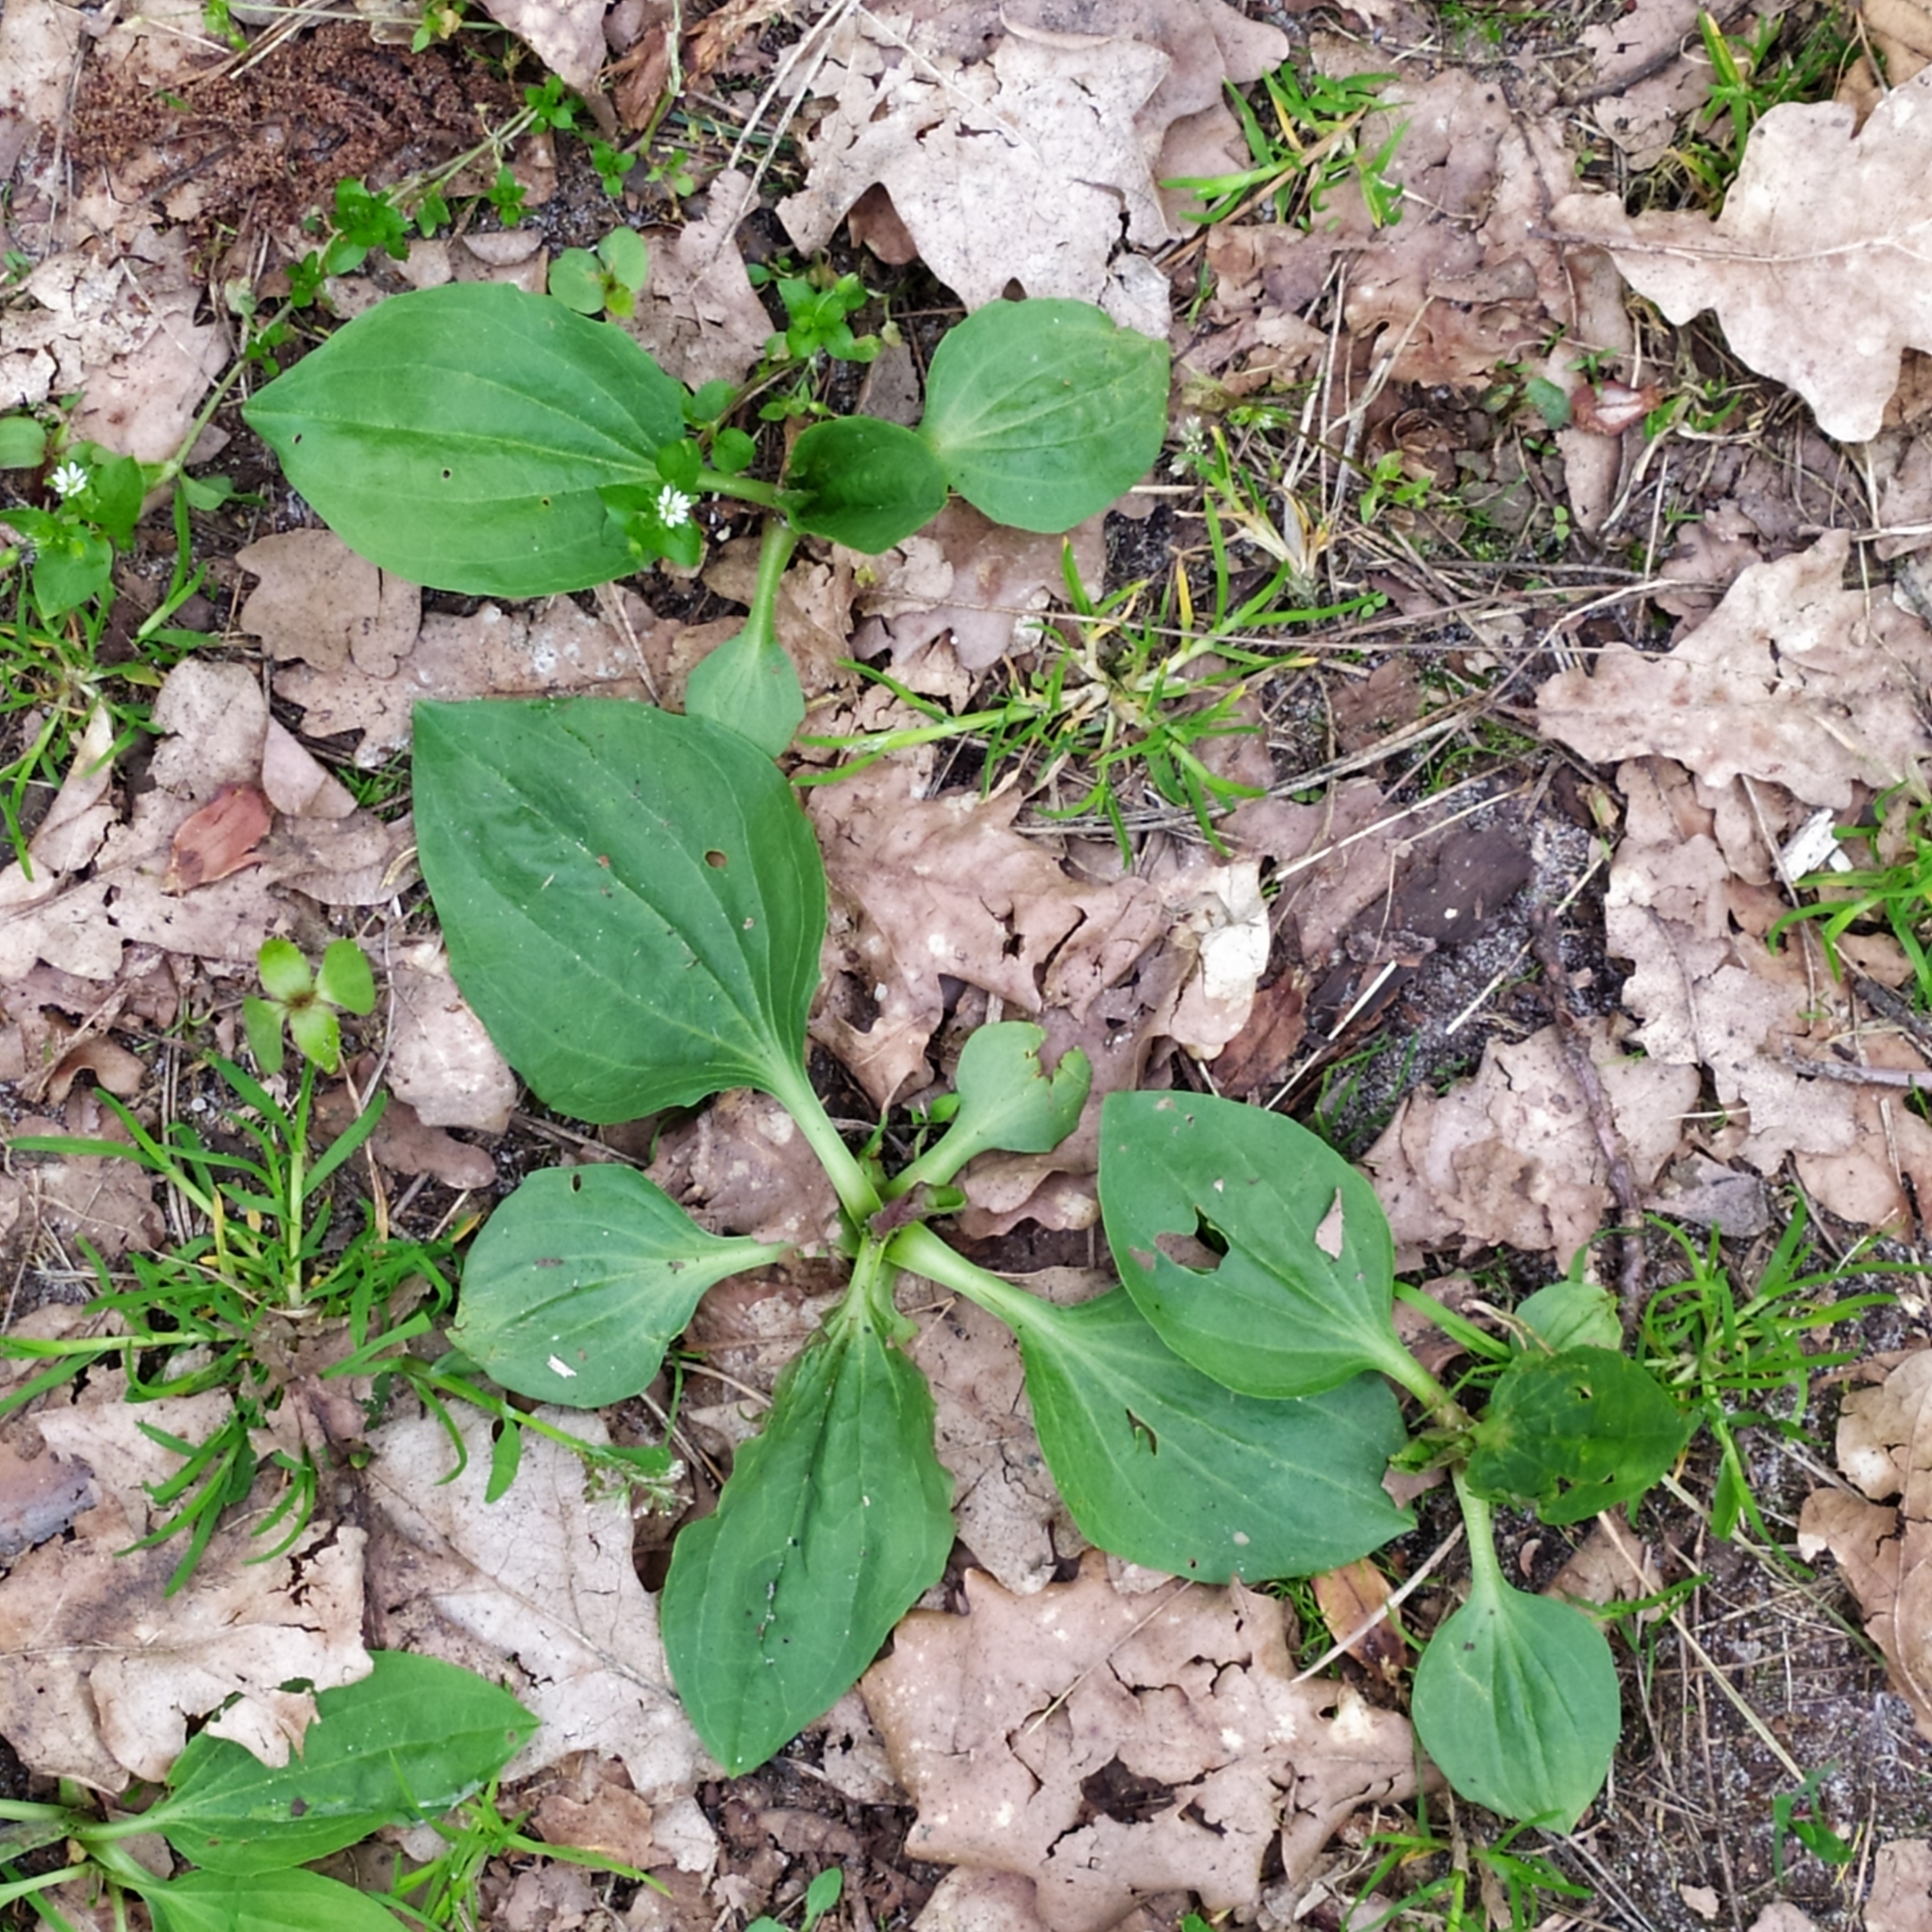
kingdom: Plantae
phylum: Tracheophyta
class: Magnoliopsida
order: Lamiales
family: Plantaginaceae
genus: Plantago
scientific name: Plantago major
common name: Common plantain
